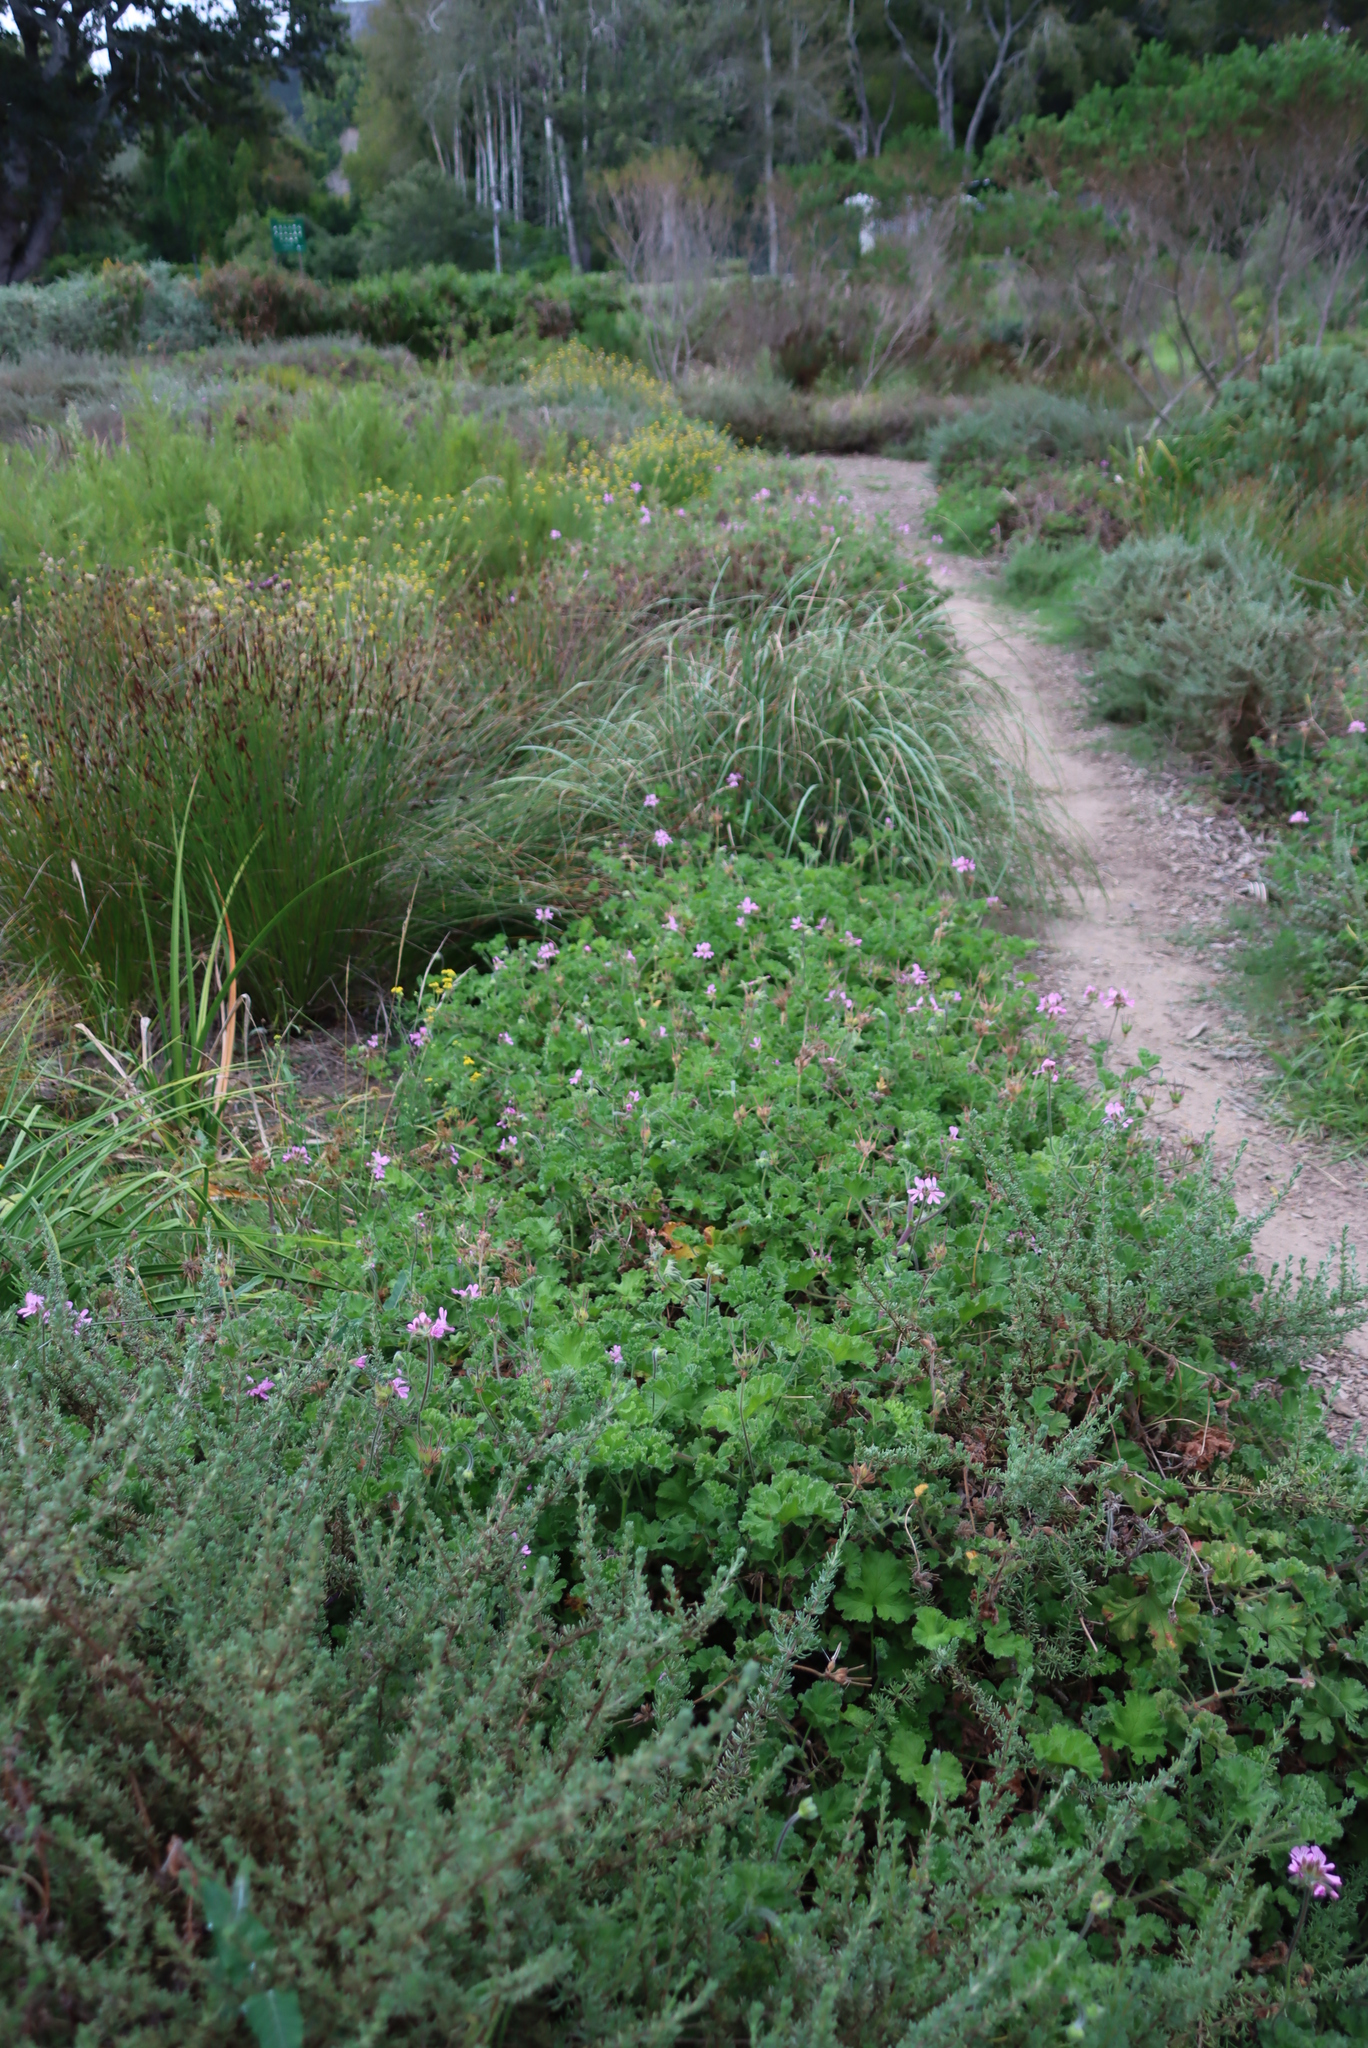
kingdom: Plantae
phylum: Tracheophyta
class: Magnoliopsida
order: Geraniales
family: Geraniaceae
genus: Pelargonium
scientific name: Pelargonium capitatum
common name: Rose scented geranium
